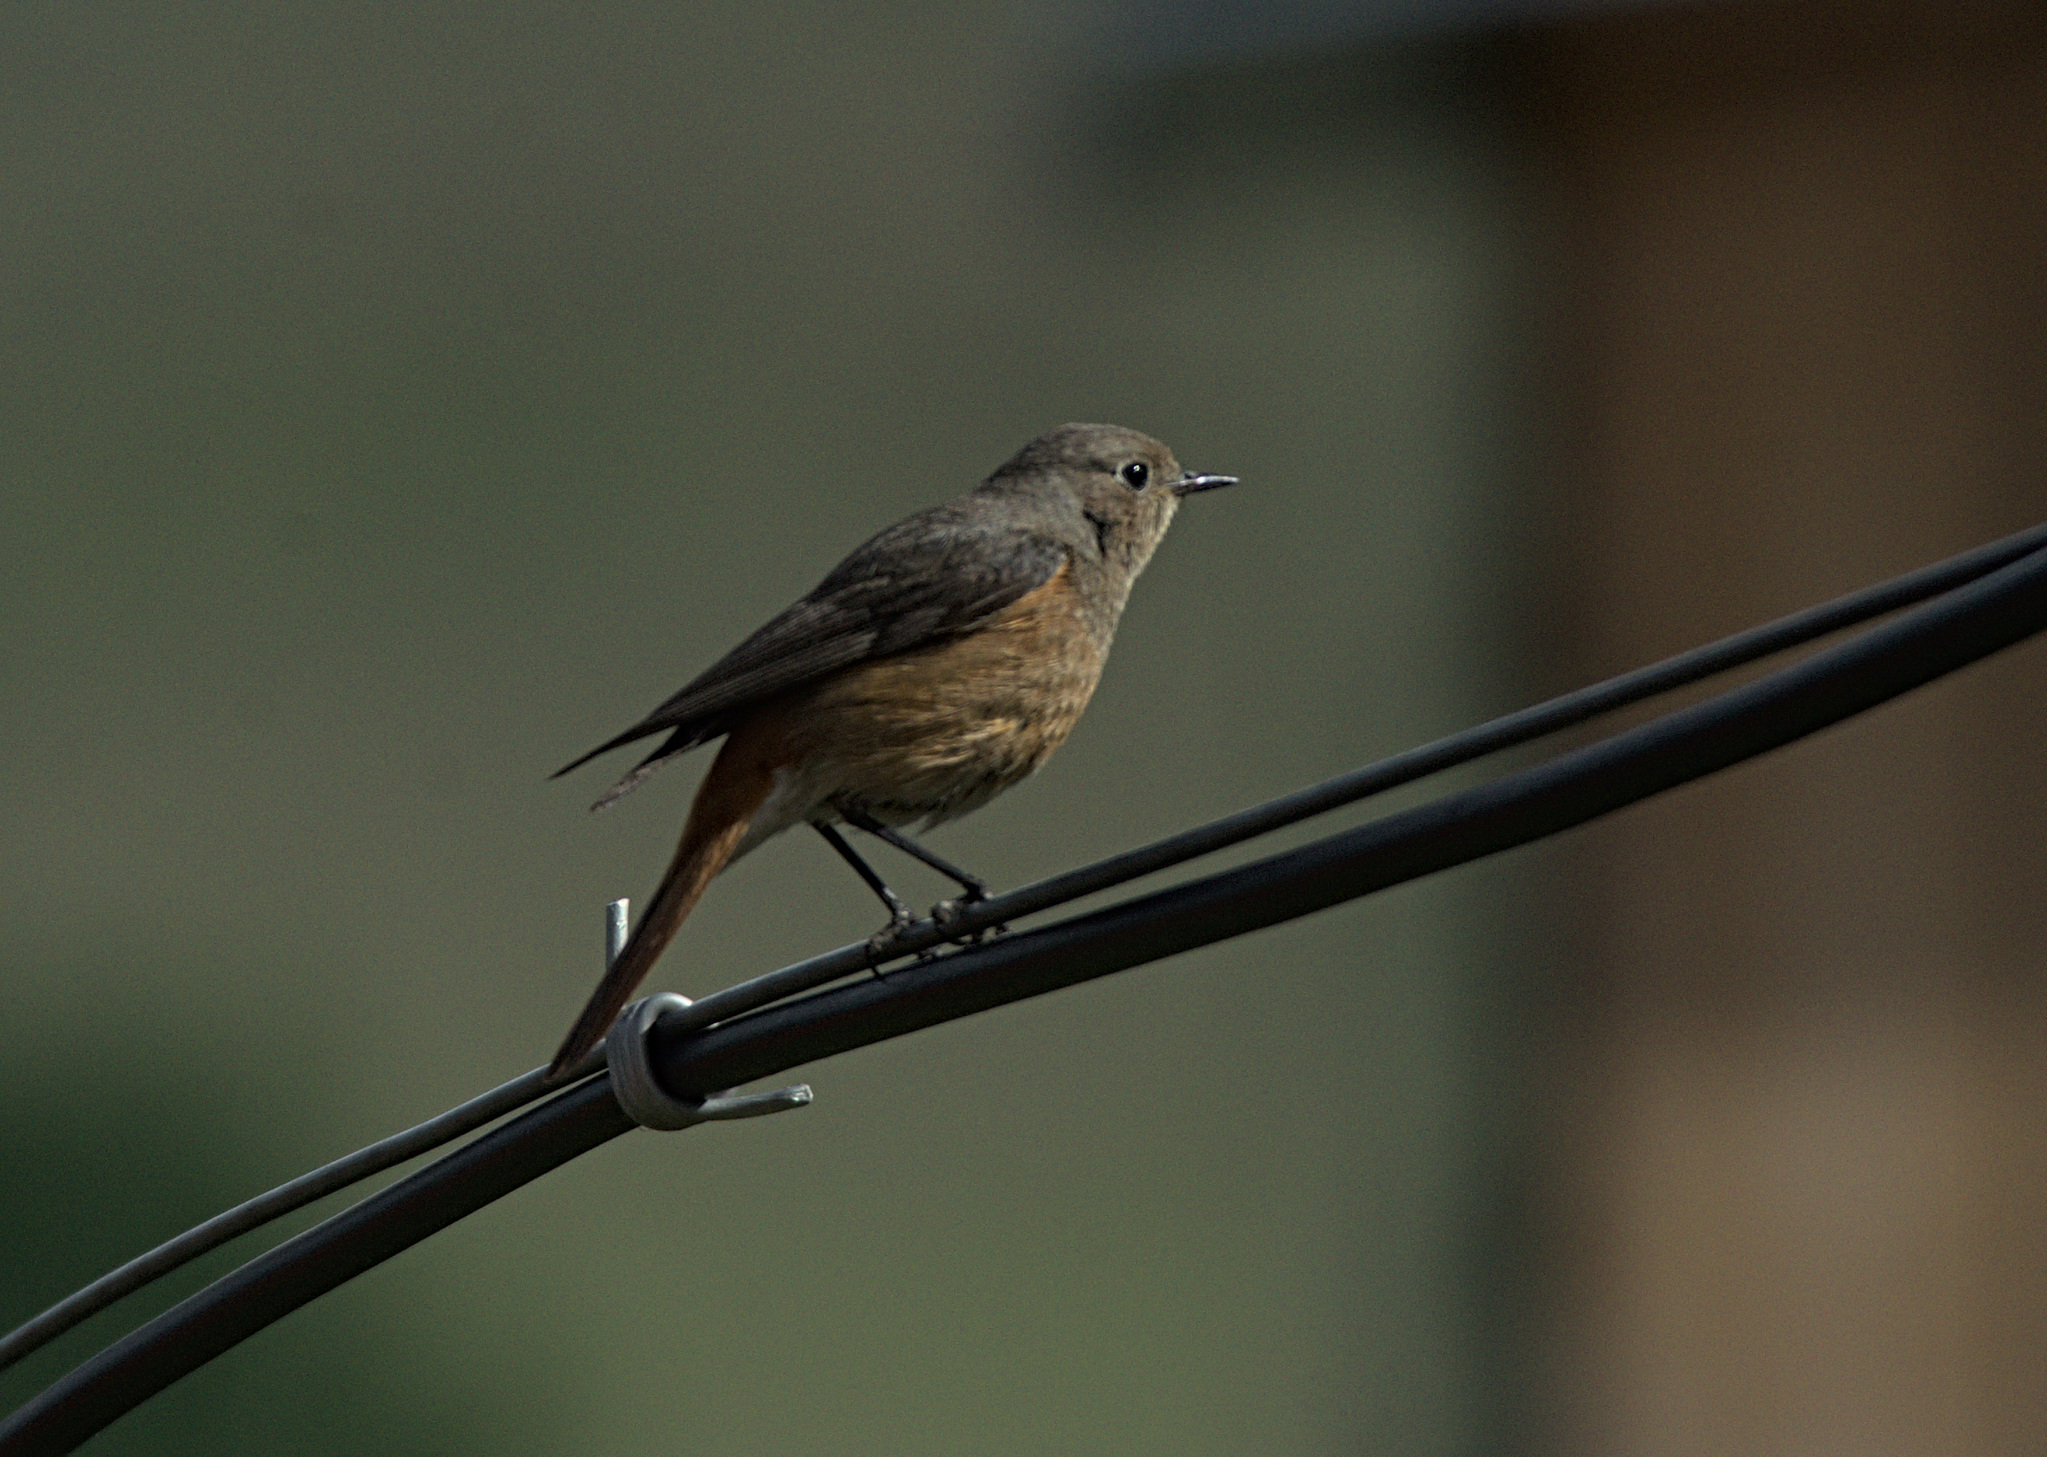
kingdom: Animalia
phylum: Chordata
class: Aves
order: Passeriformes
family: Muscicapidae
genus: Phoenicurus
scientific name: Phoenicurus ochruros
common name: Black redstart
